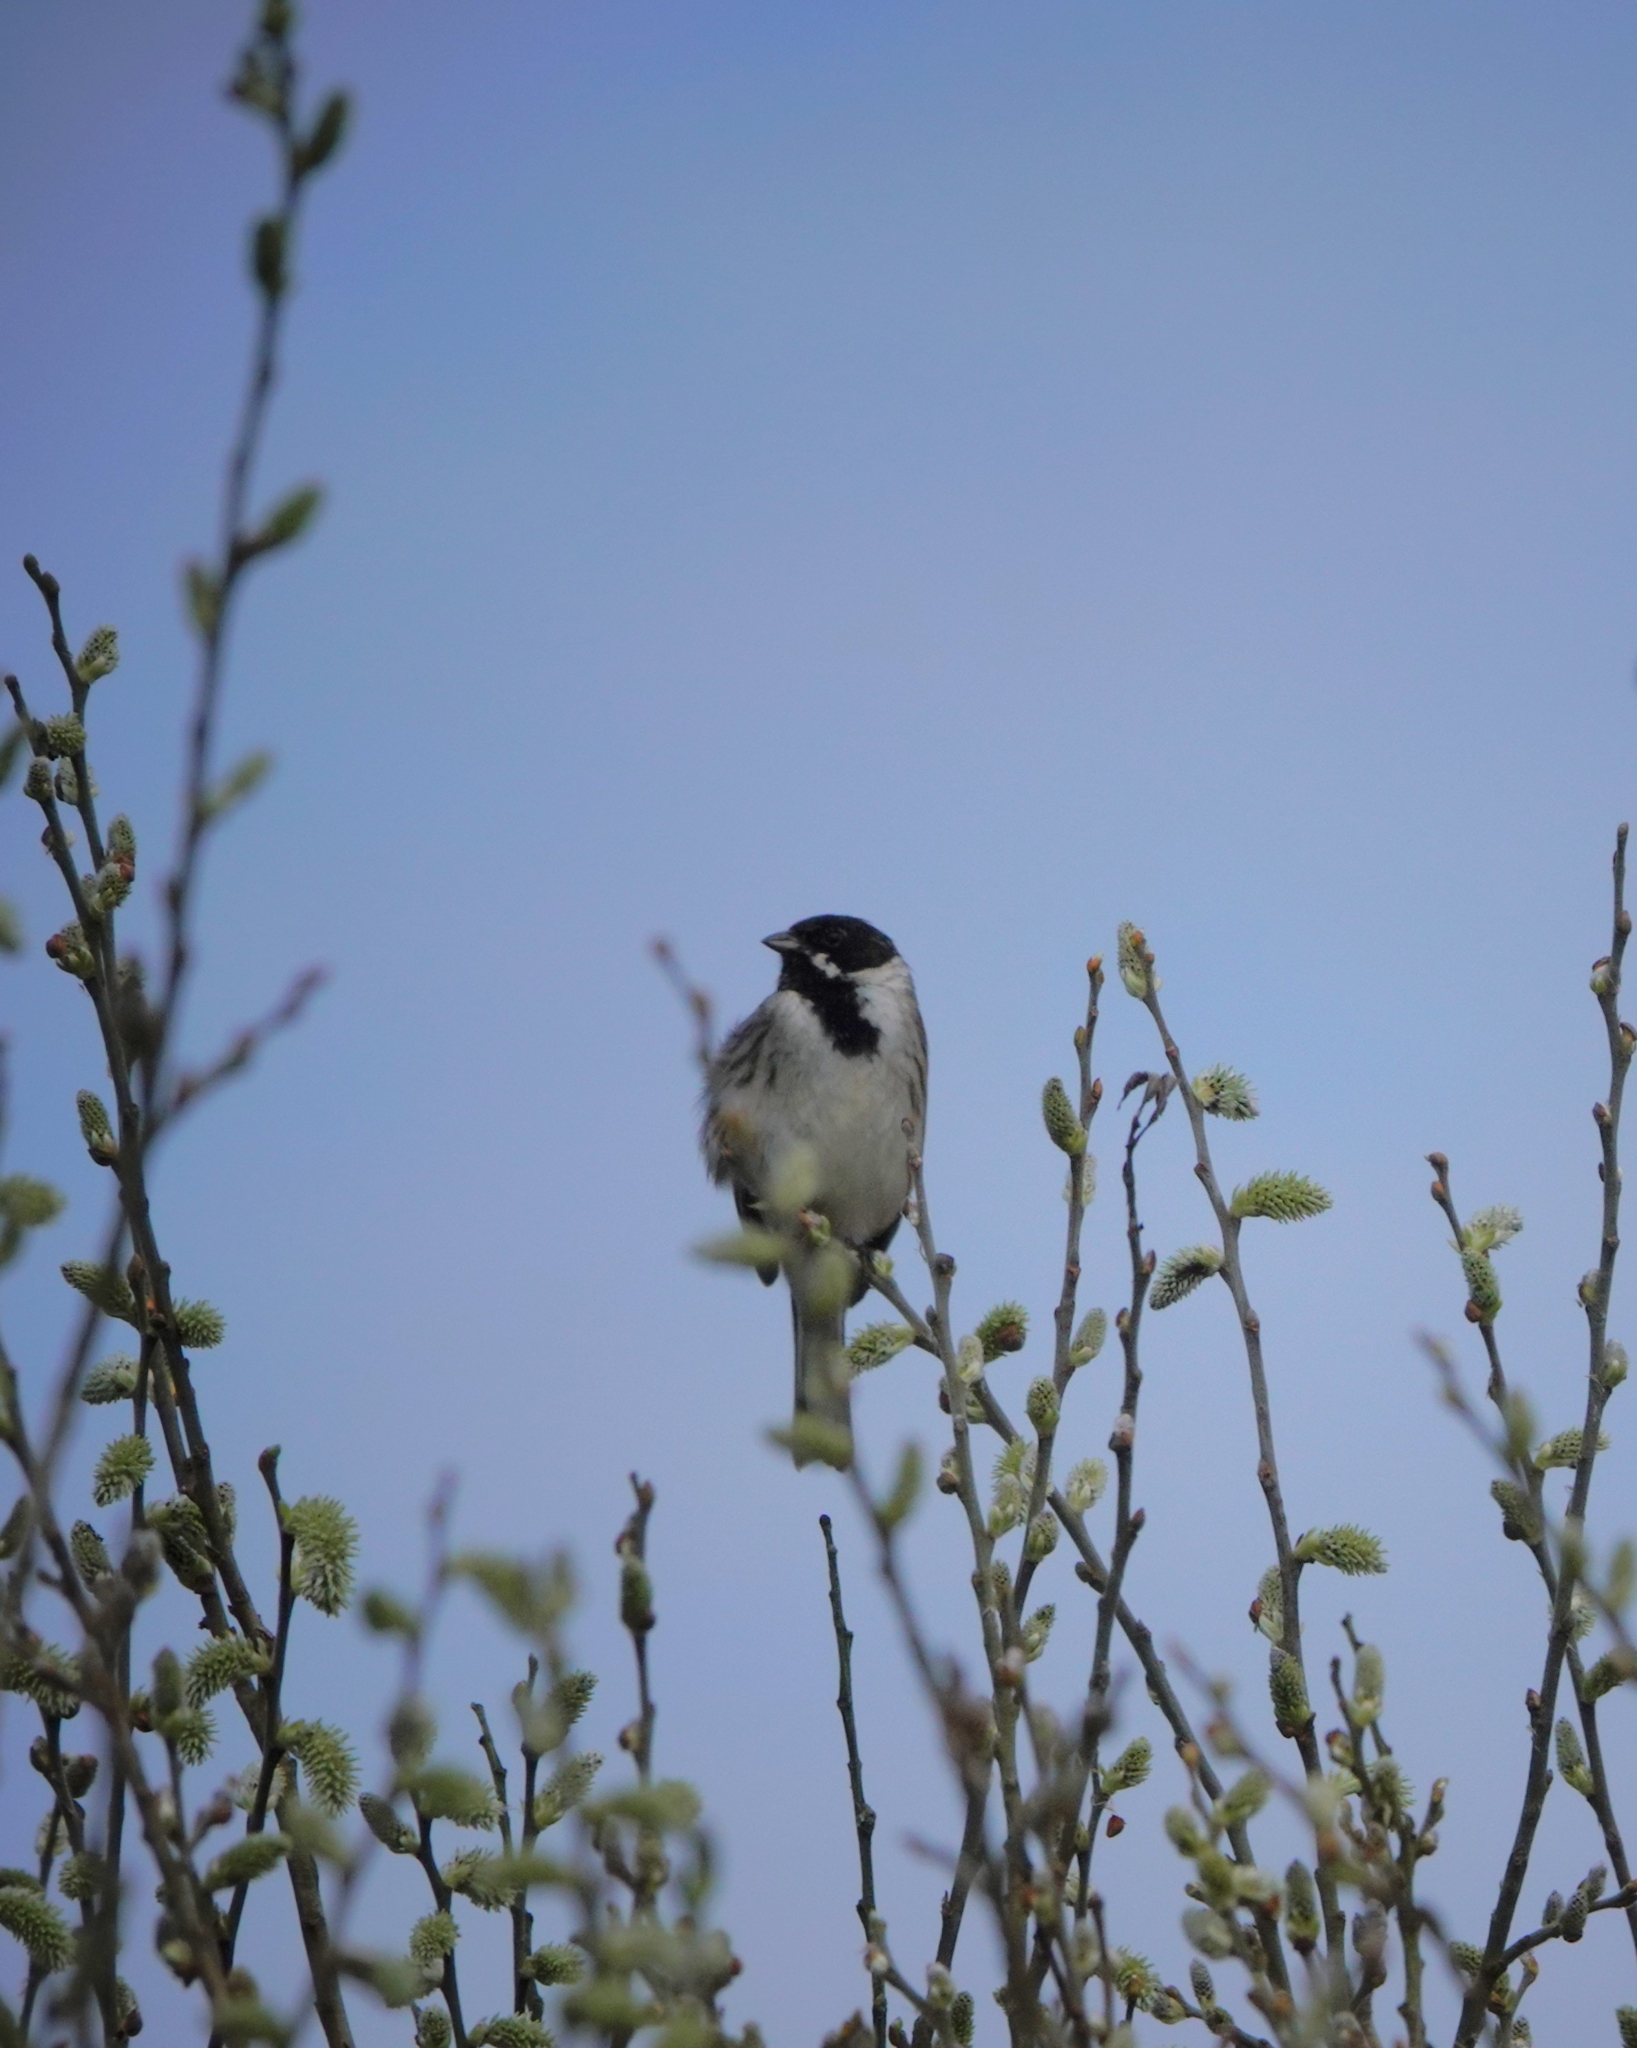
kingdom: Animalia
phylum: Chordata
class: Aves
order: Passeriformes
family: Emberizidae
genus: Emberiza
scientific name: Emberiza schoeniclus
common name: Reed bunting
